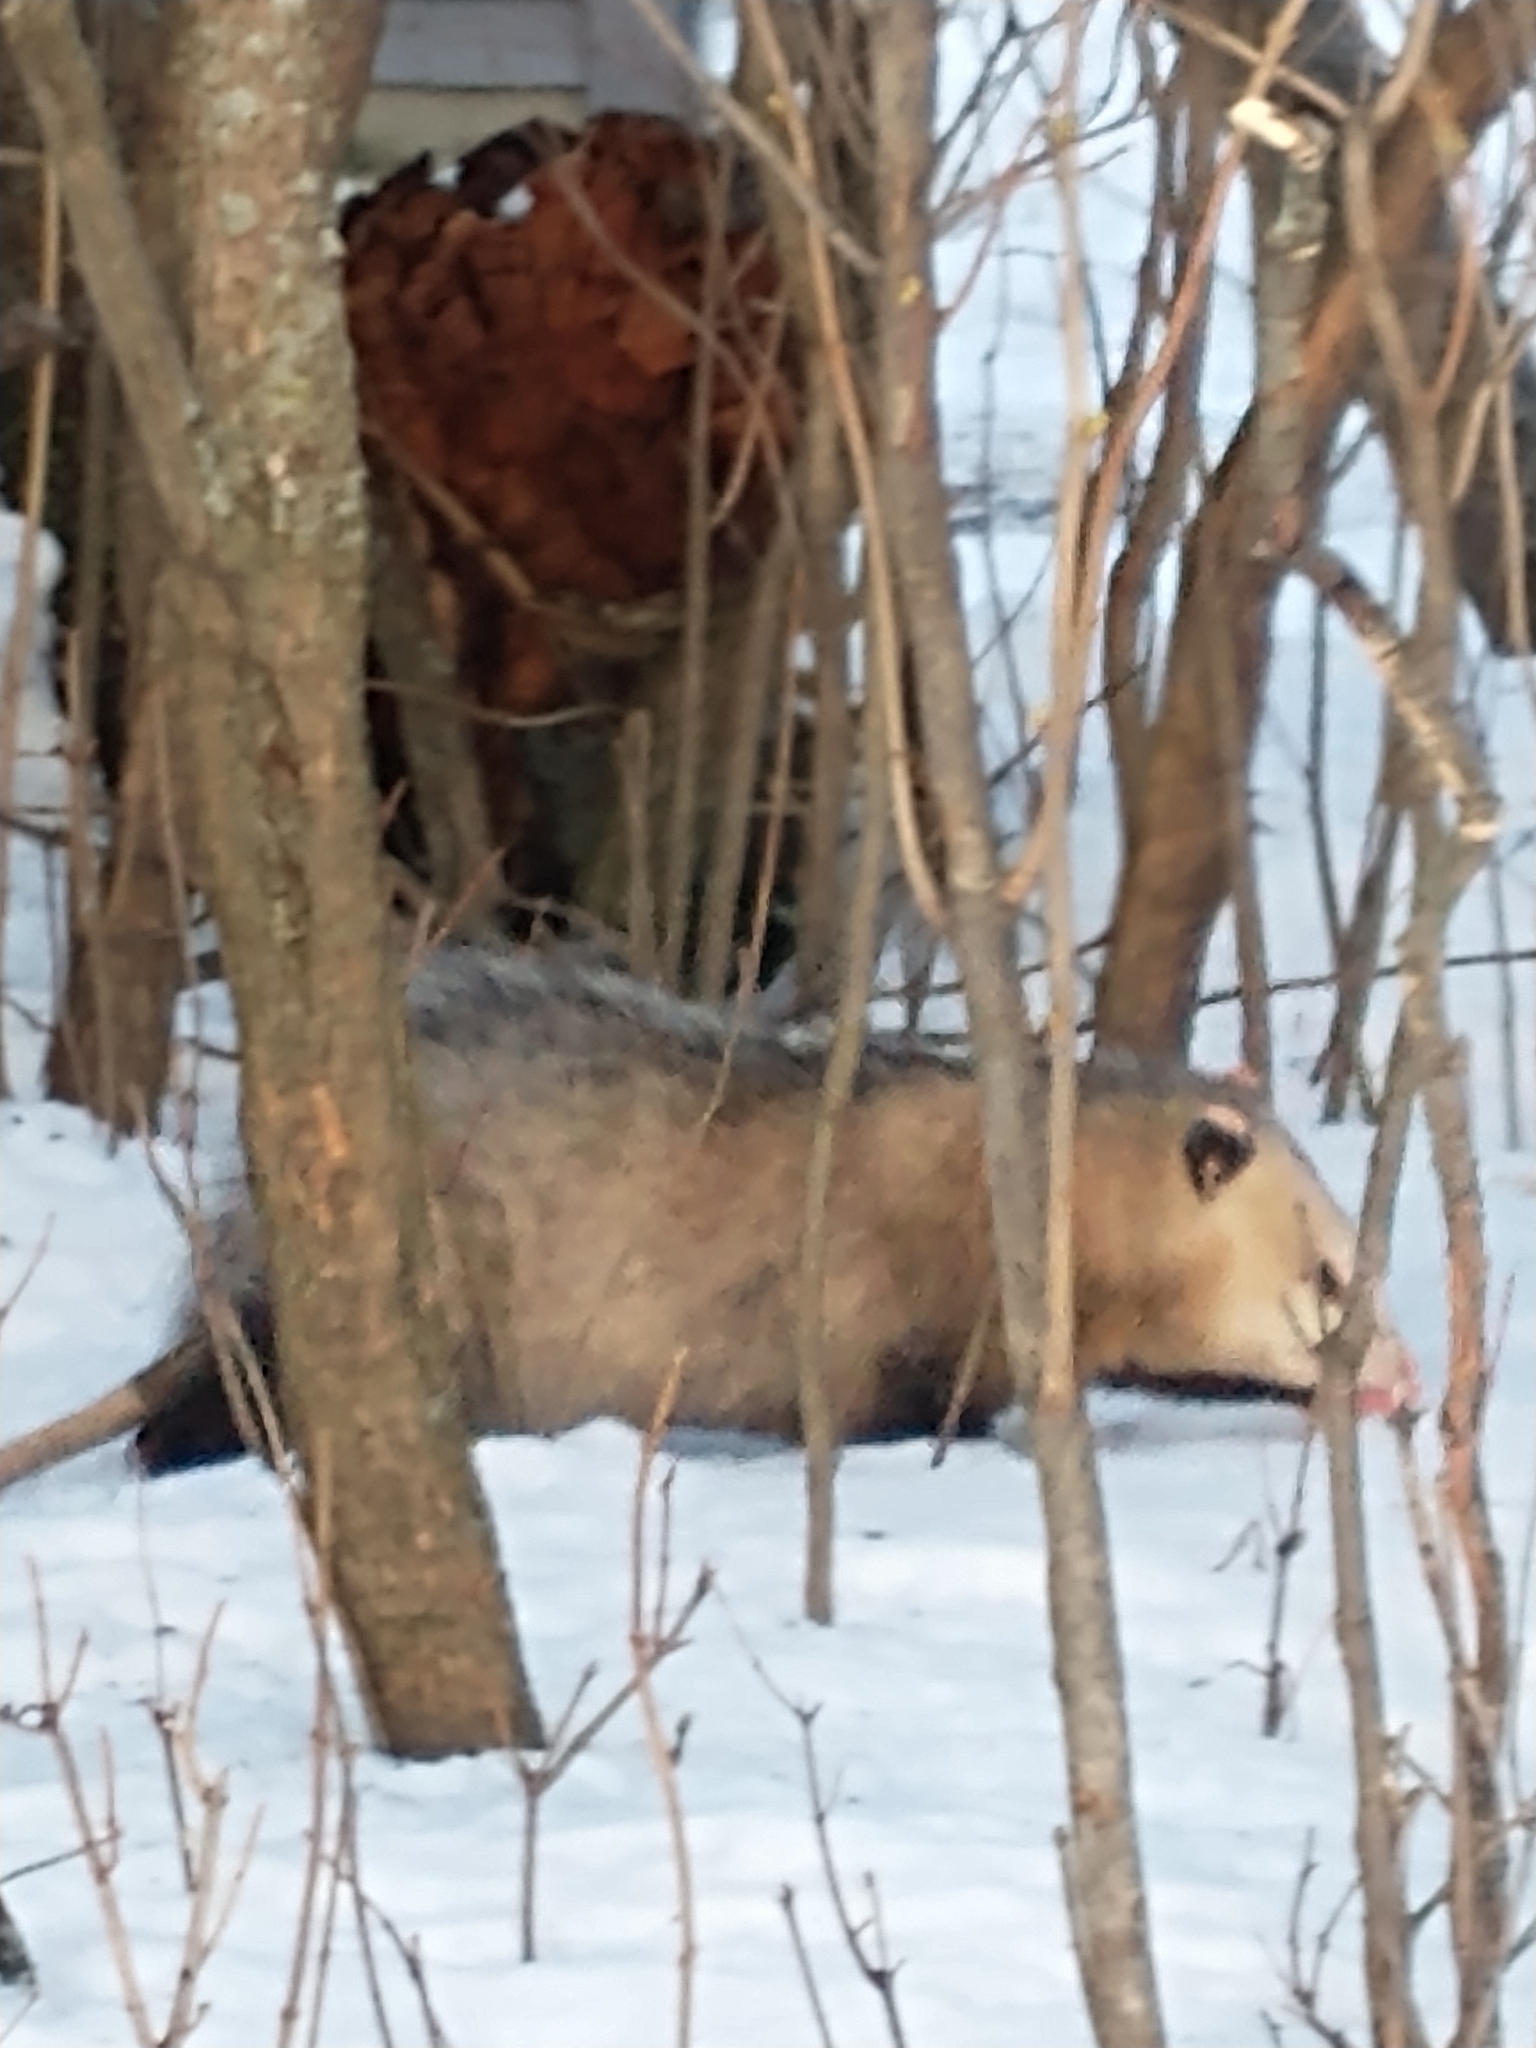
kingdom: Animalia
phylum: Chordata
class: Mammalia
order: Didelphimorphia
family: Didelphidae
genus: Didelphis
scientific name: Didelphis virginiana
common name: Virginia opossum
